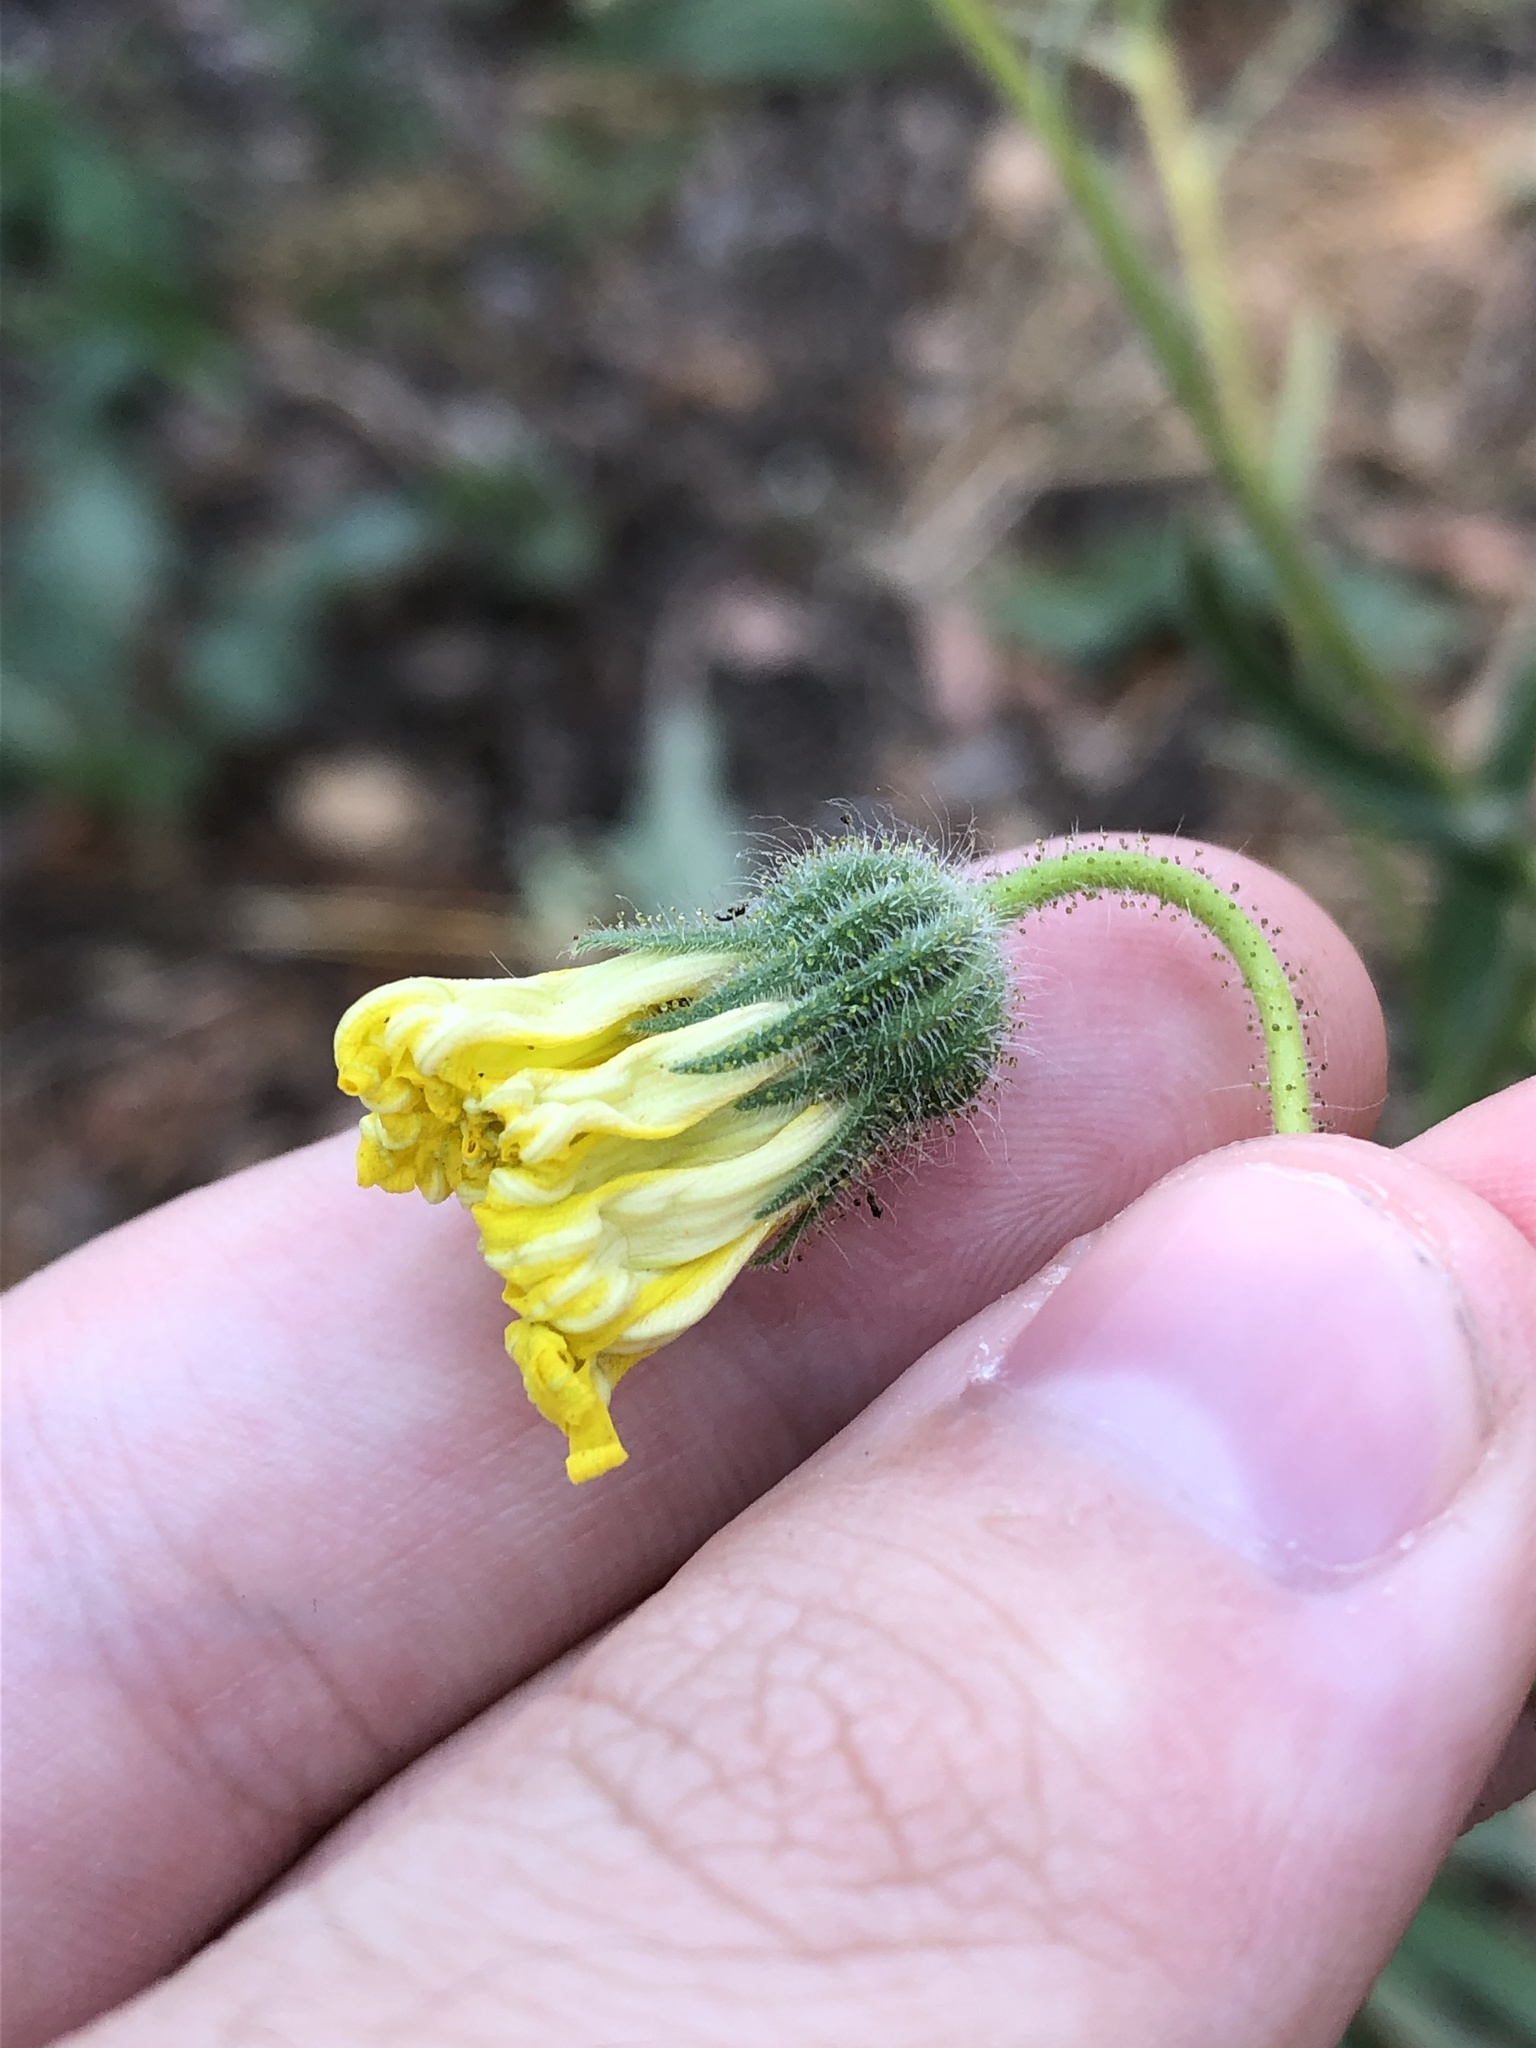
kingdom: Plantae
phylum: Tracheophyta
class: Magnoliopsida
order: Asterales
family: Asteraceae
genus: Madia
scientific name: Madia elegans
